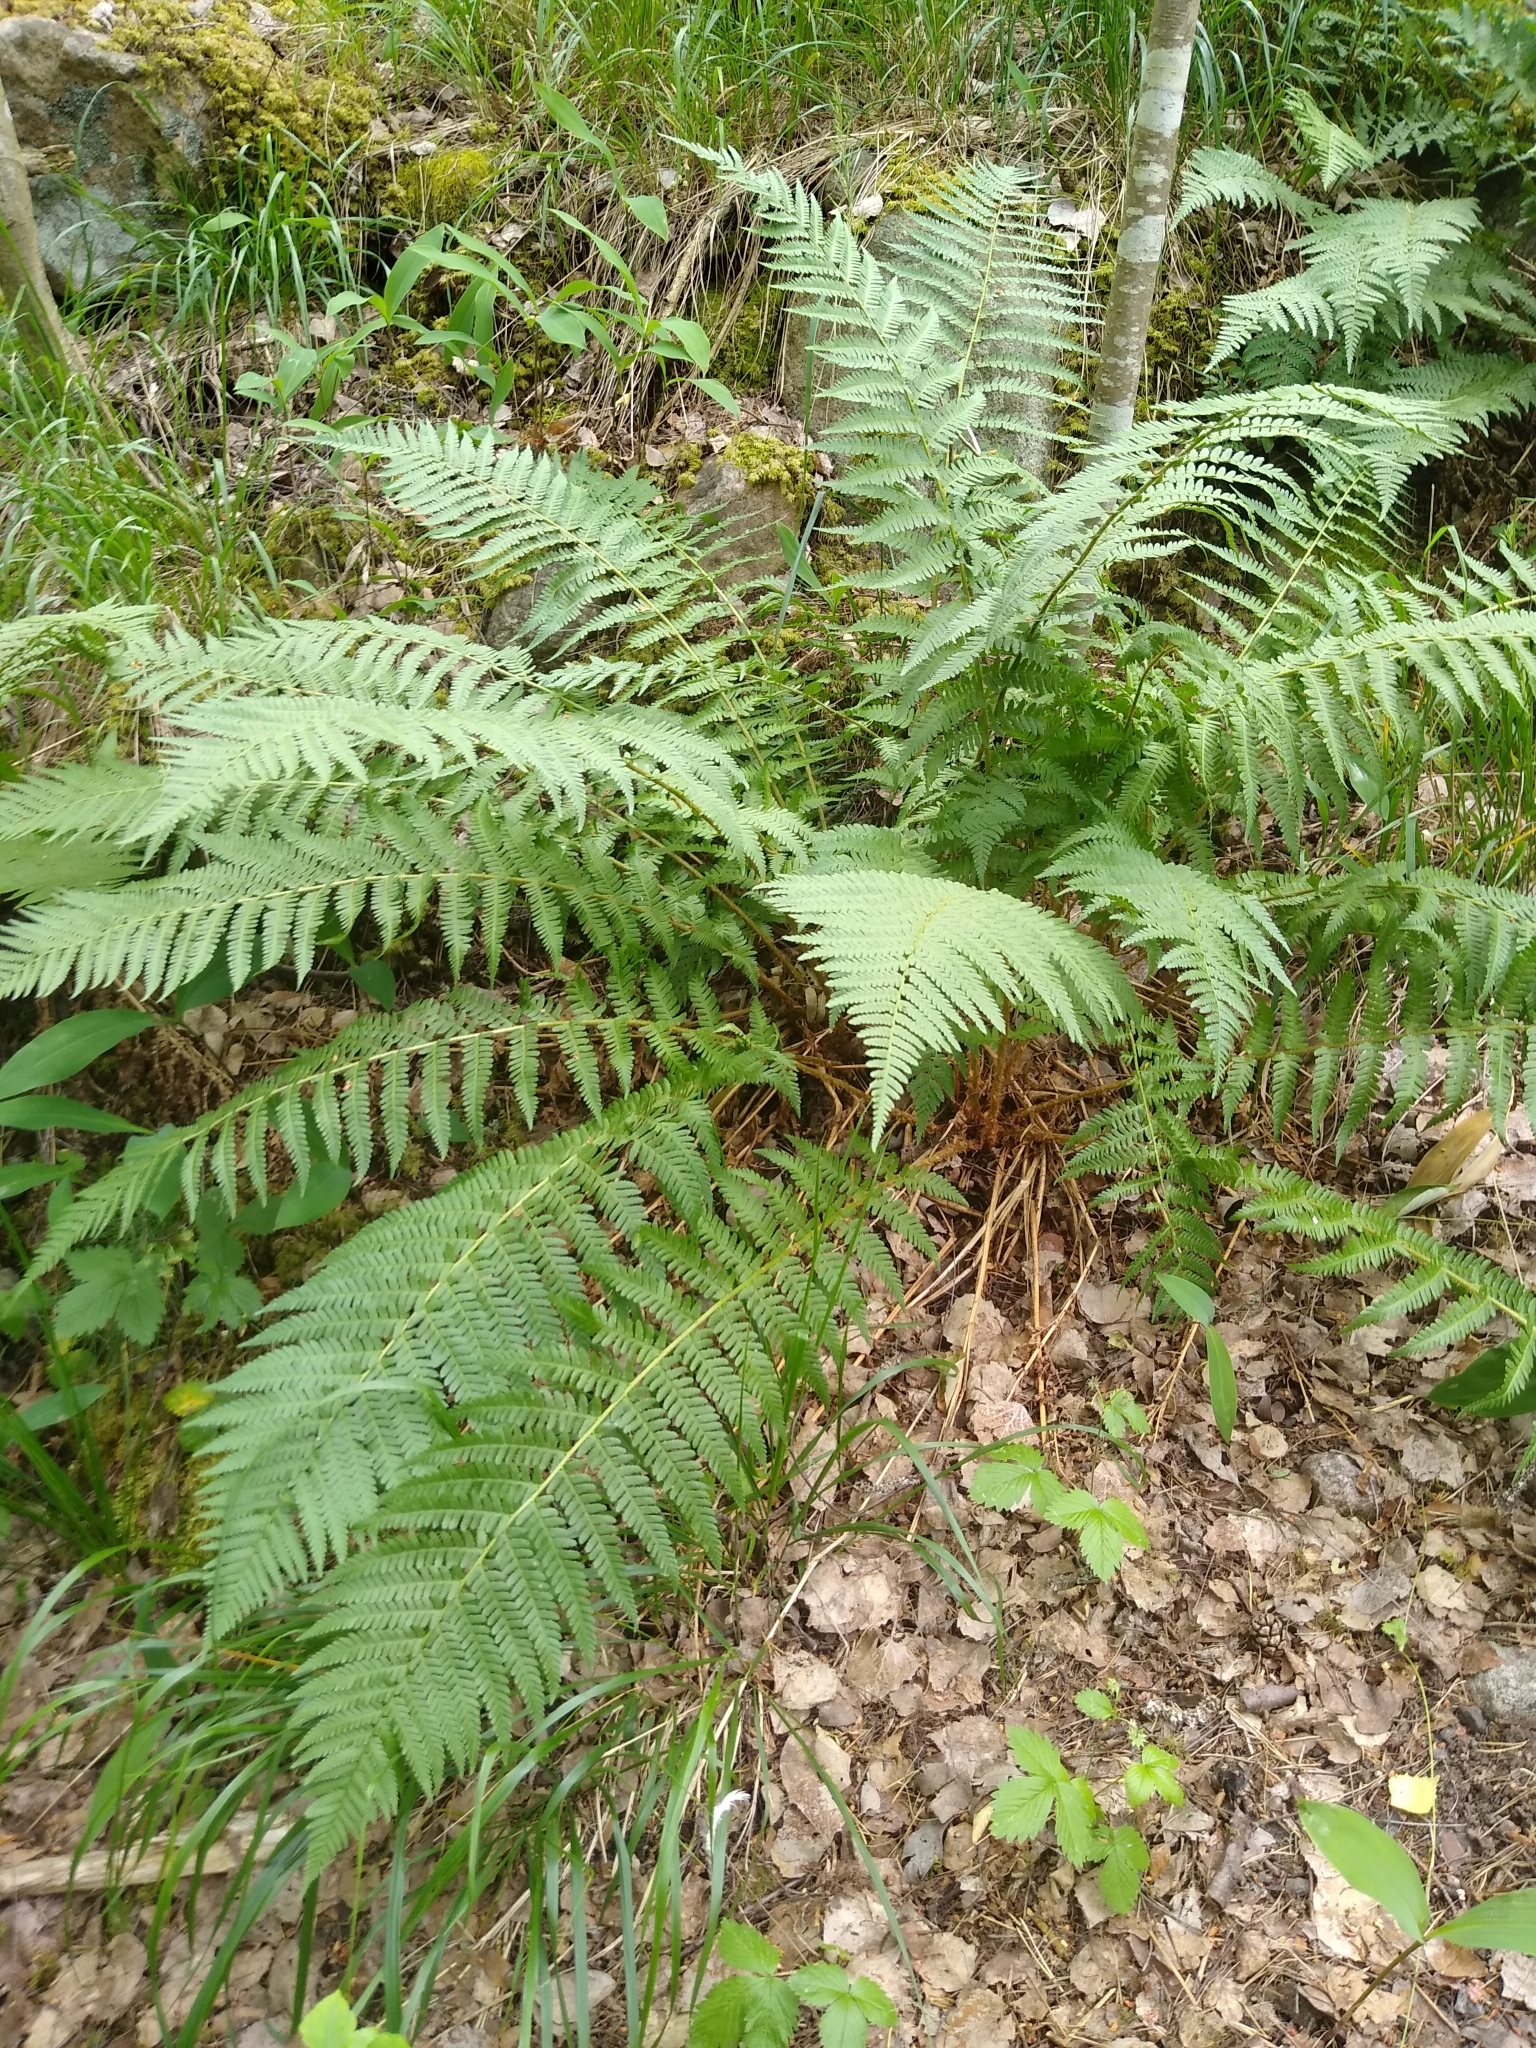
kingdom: Plantae
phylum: Tracheophyta
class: Polypodiopsida
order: Polypodiales
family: Dryopteridaceae
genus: Dryopteris
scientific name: Dryopteris filix-mas
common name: Male fern
